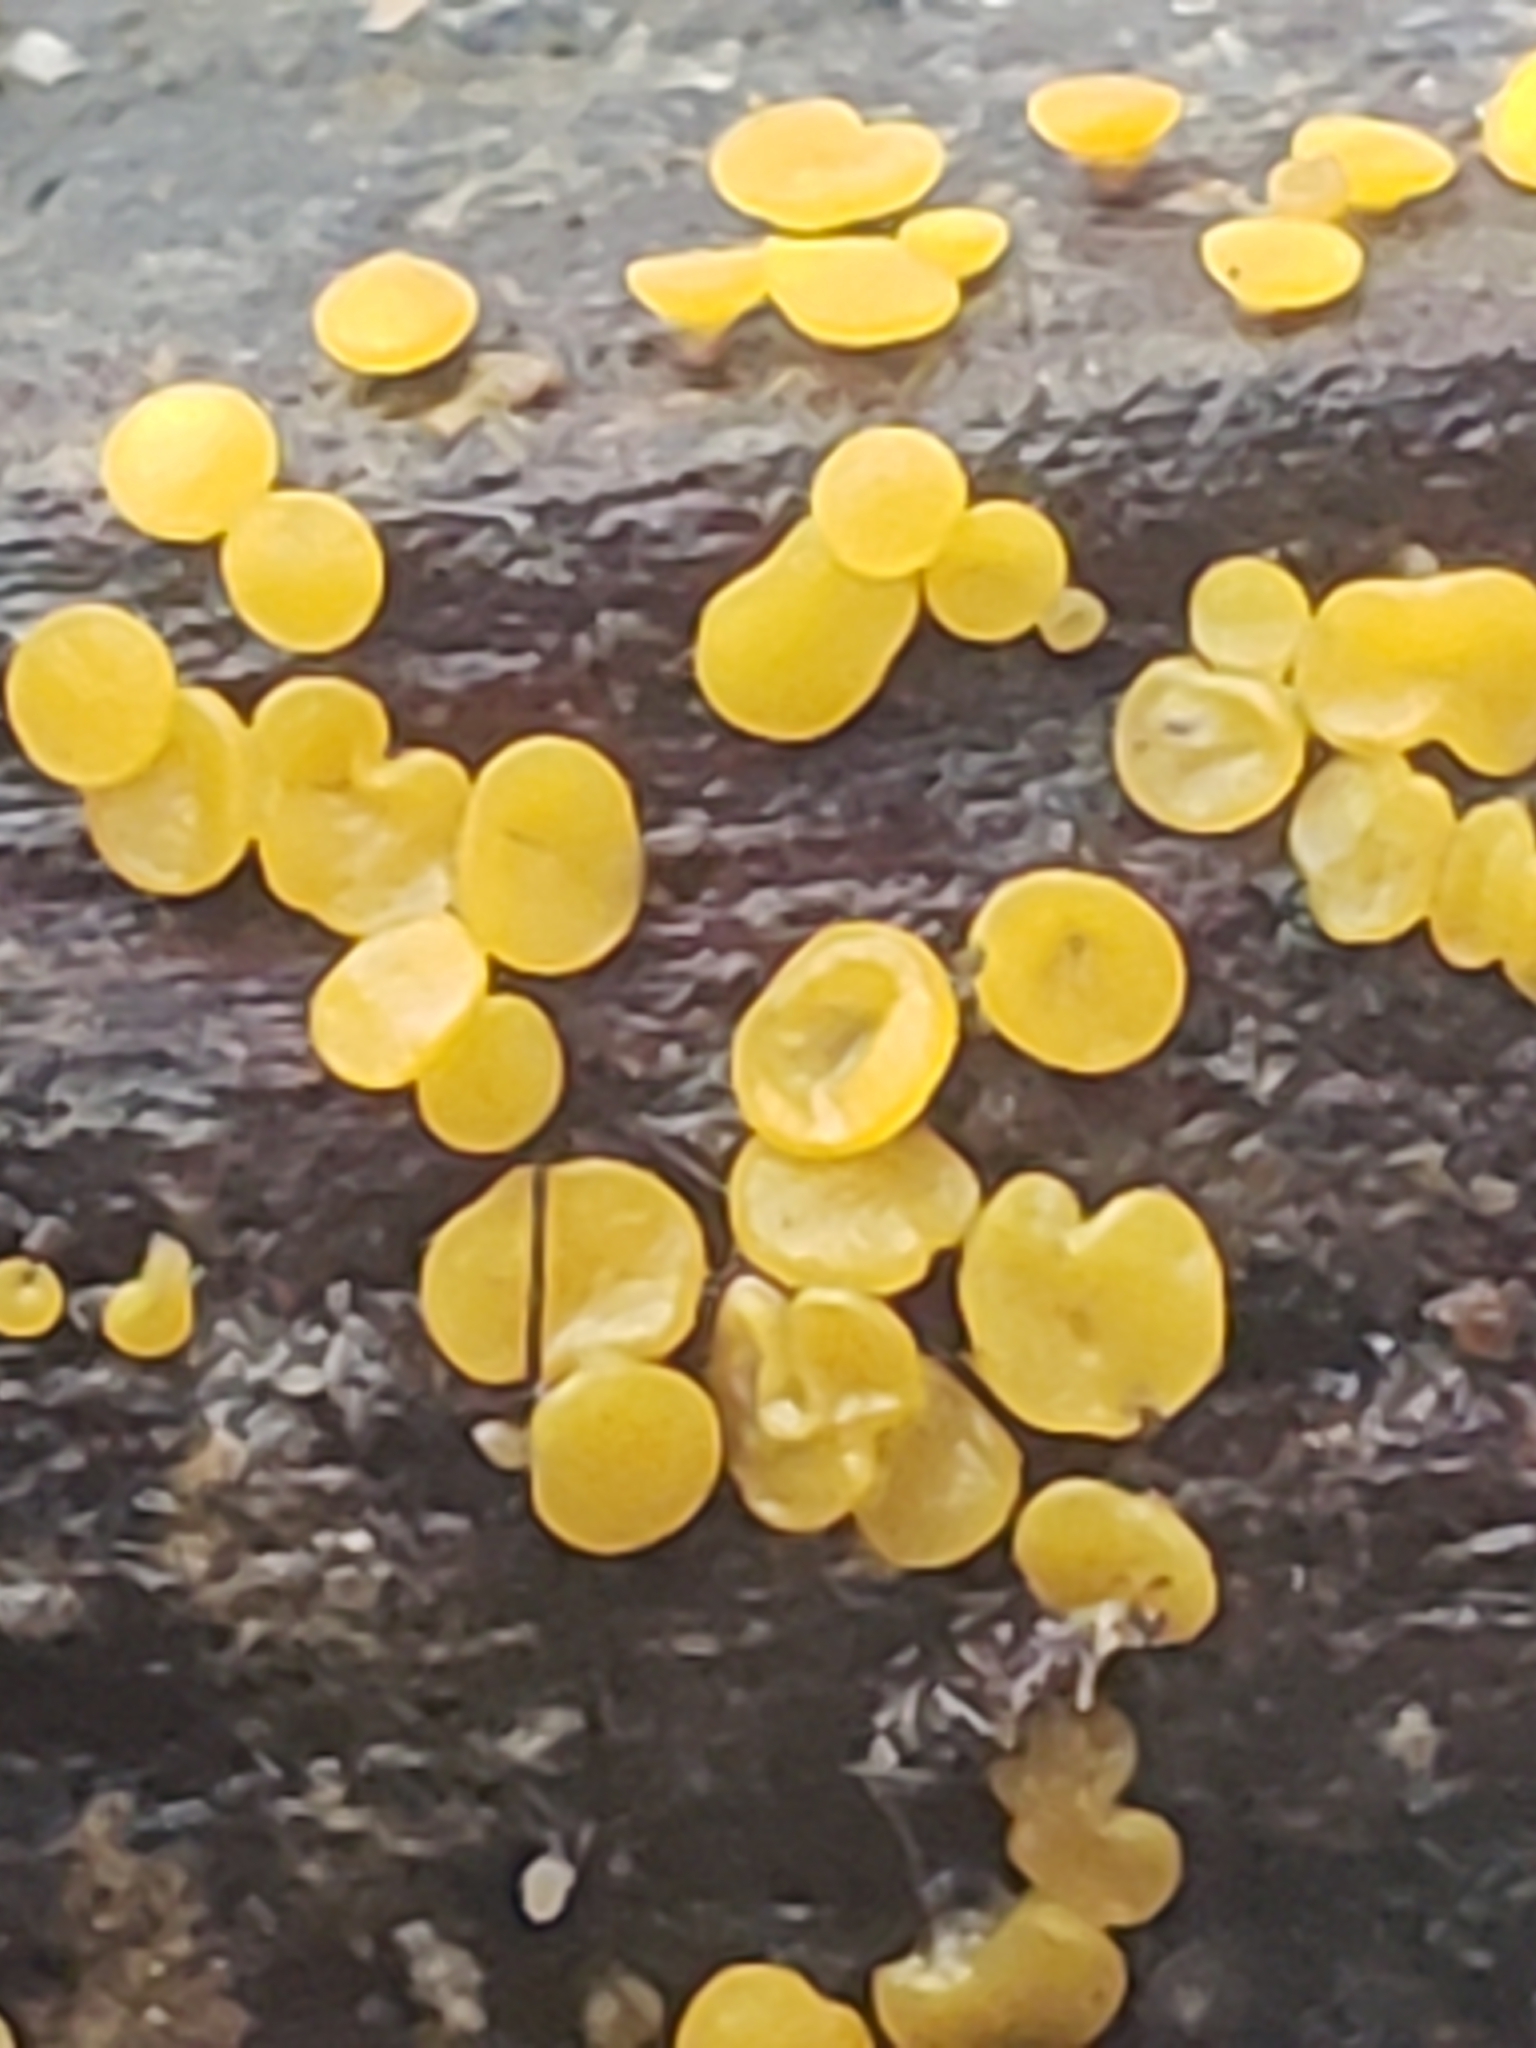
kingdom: Fungi
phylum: Ascomycota
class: Leotiomycetes
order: Helotiales
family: Pezizellaceae
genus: Calycina
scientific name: Calycina citrina
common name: Yellow fairy cups
